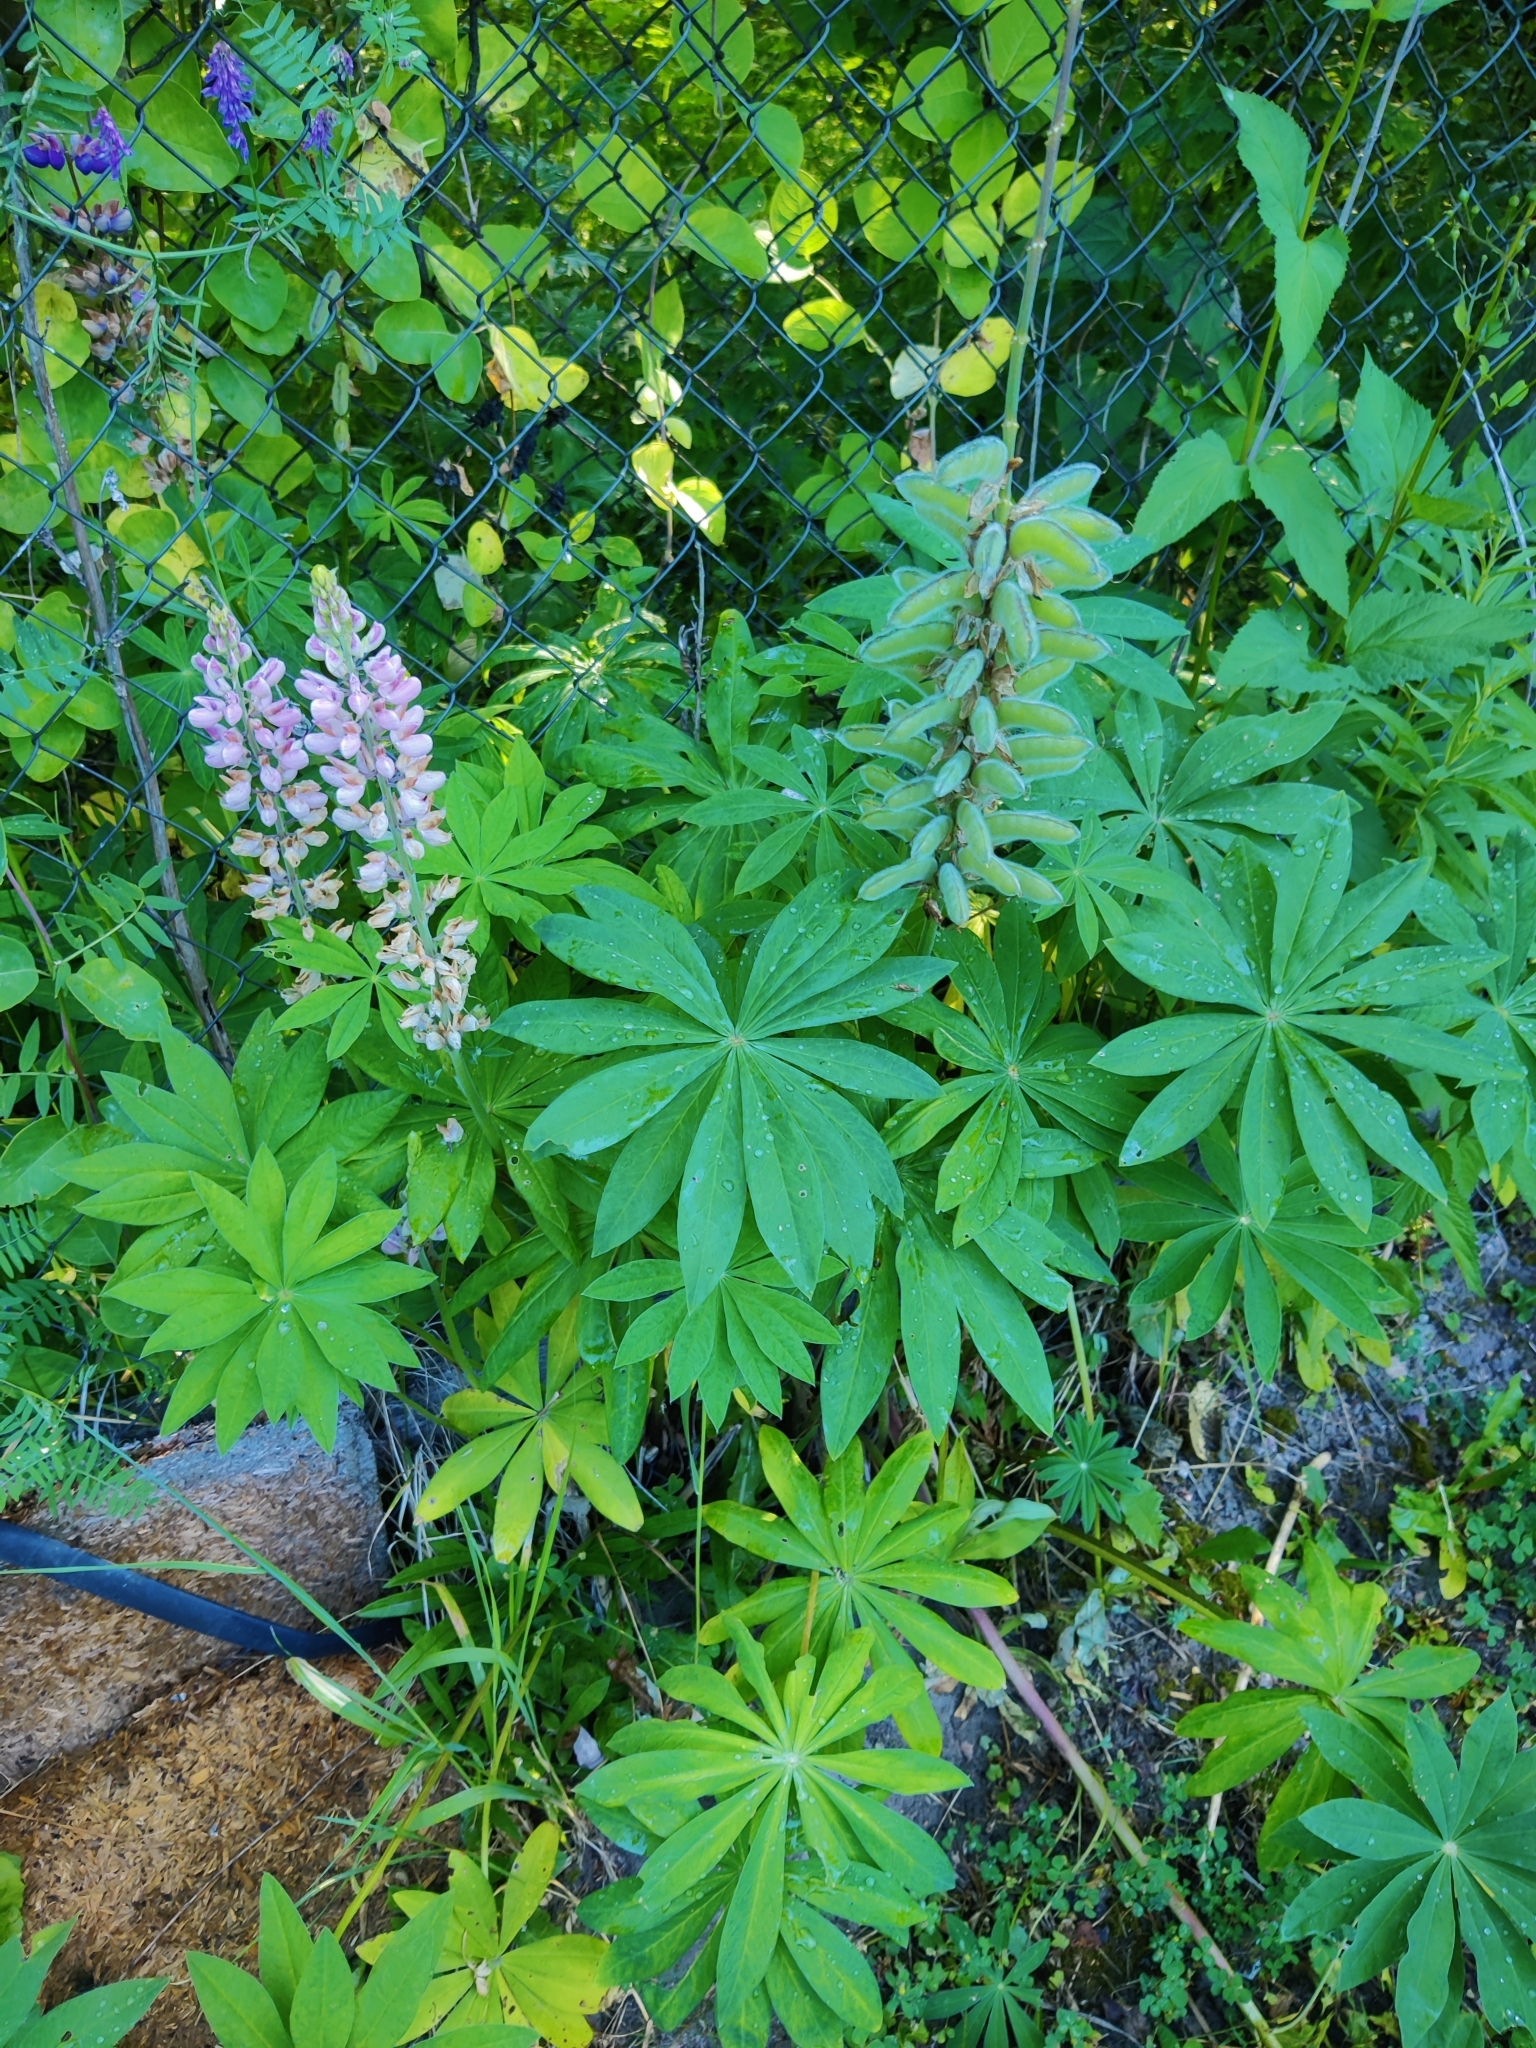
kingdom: Plantae
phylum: Tracheophyta
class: Magnoliopsida
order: Fabales
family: Fabaceae
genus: Lupinus
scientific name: Lupinus polyphyllus
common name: Garden lupin
